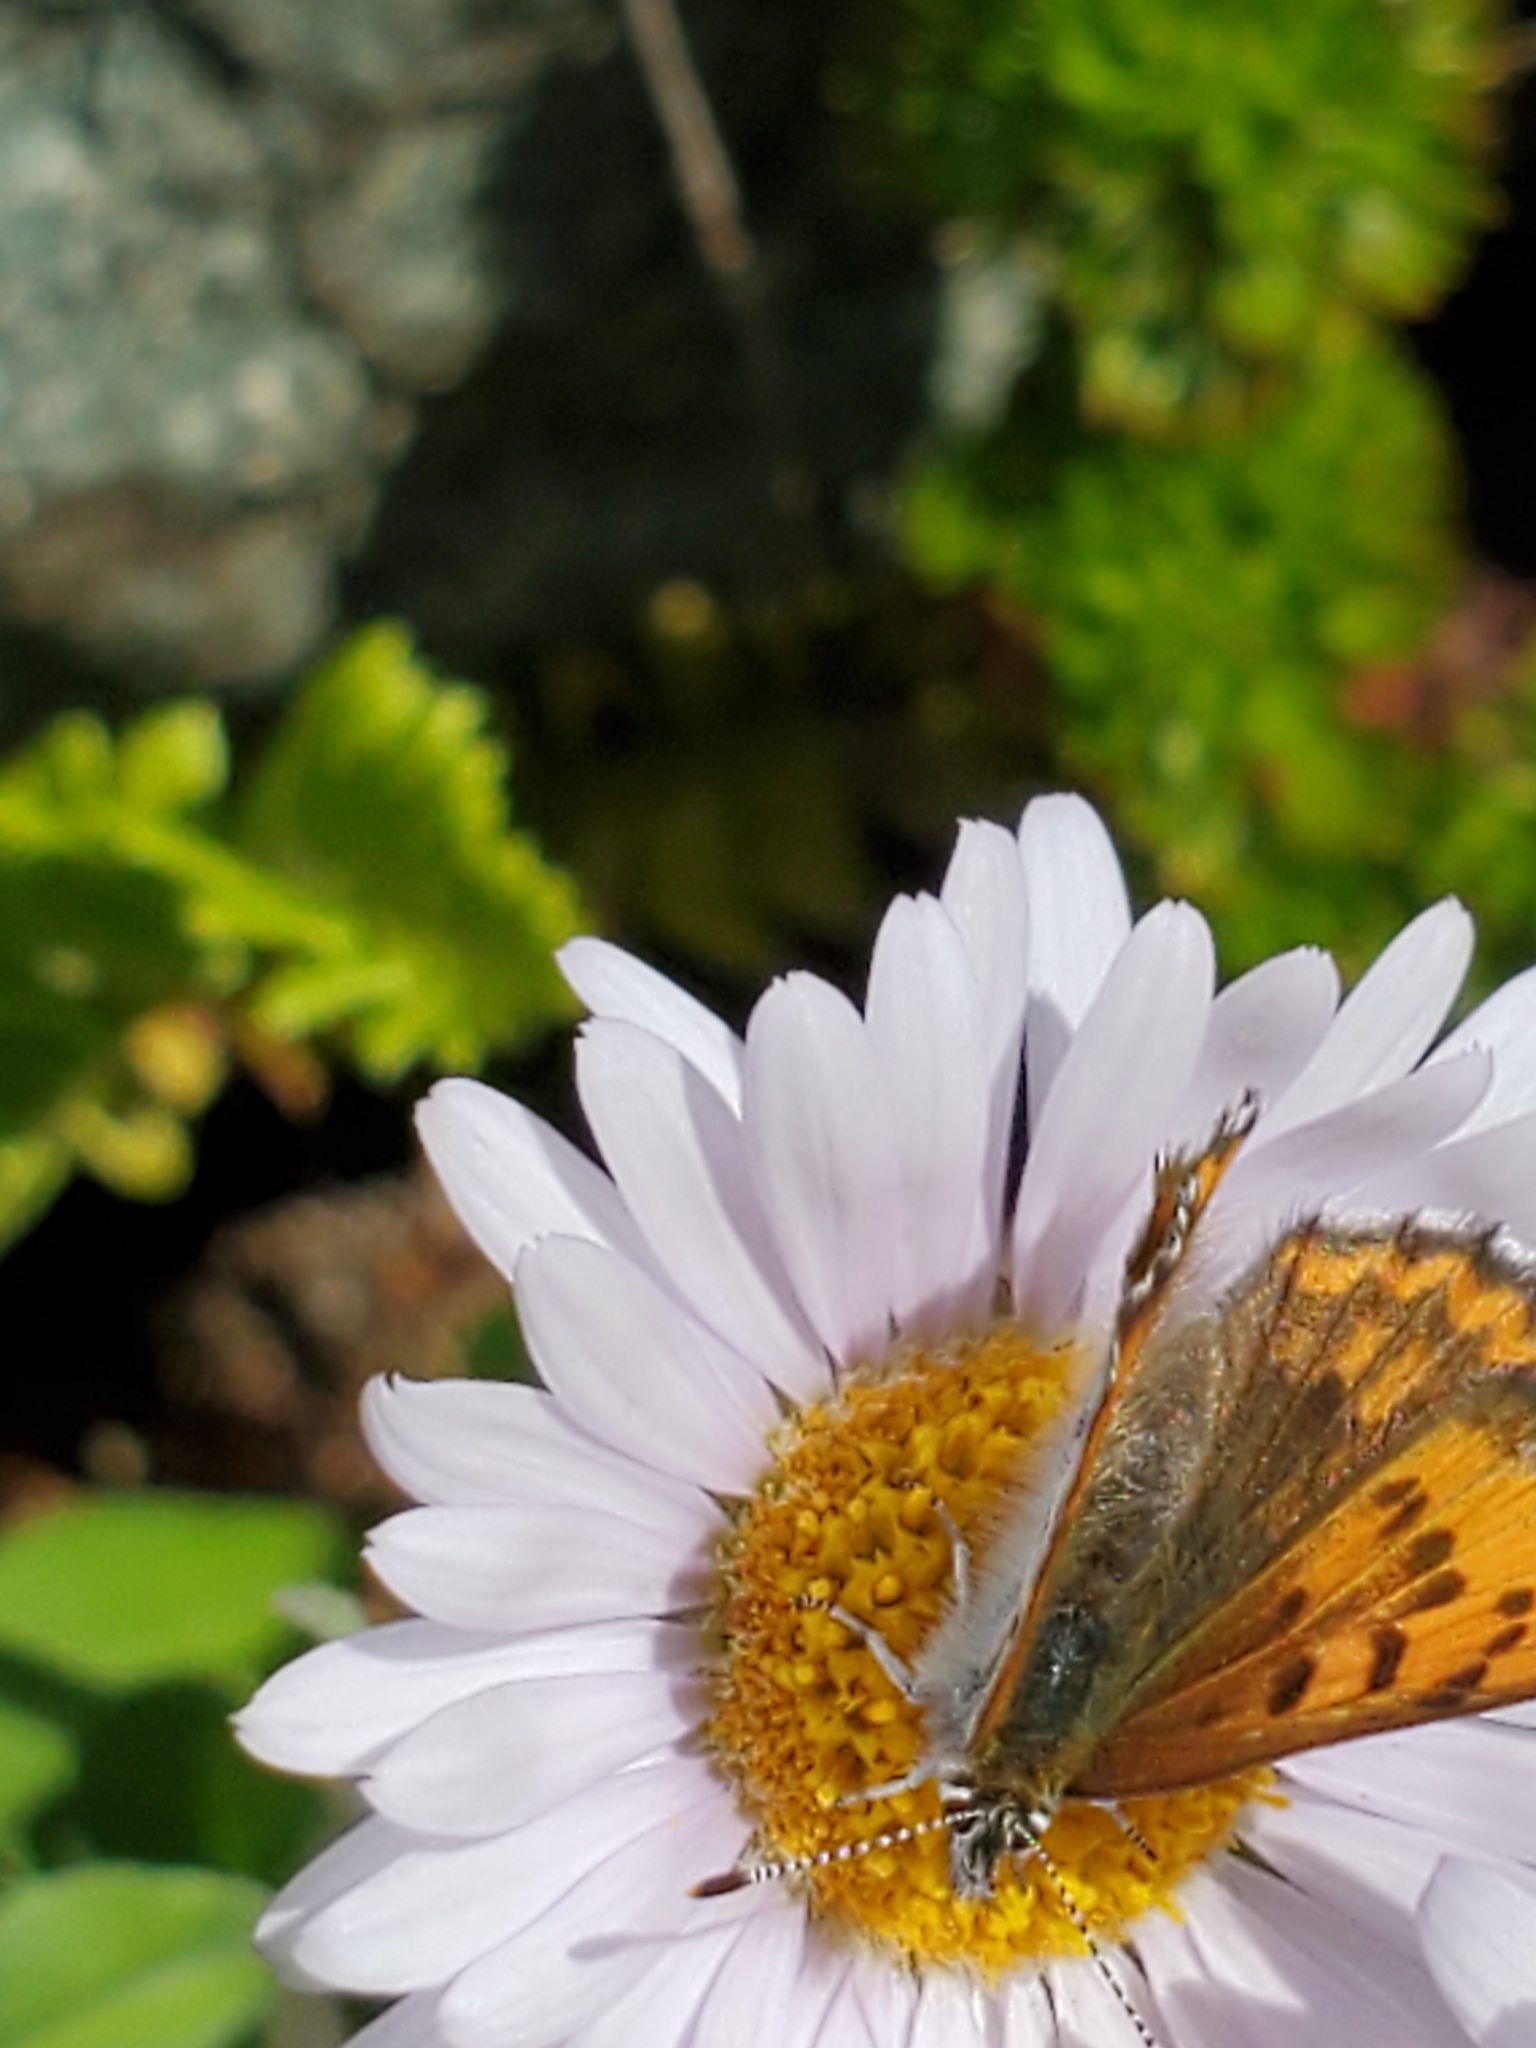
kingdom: Animalia
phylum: Arthropoda
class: Insecta
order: Lepidoptera
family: Lycaenidae
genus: Tharsalea
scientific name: Tharsalea mariposa
